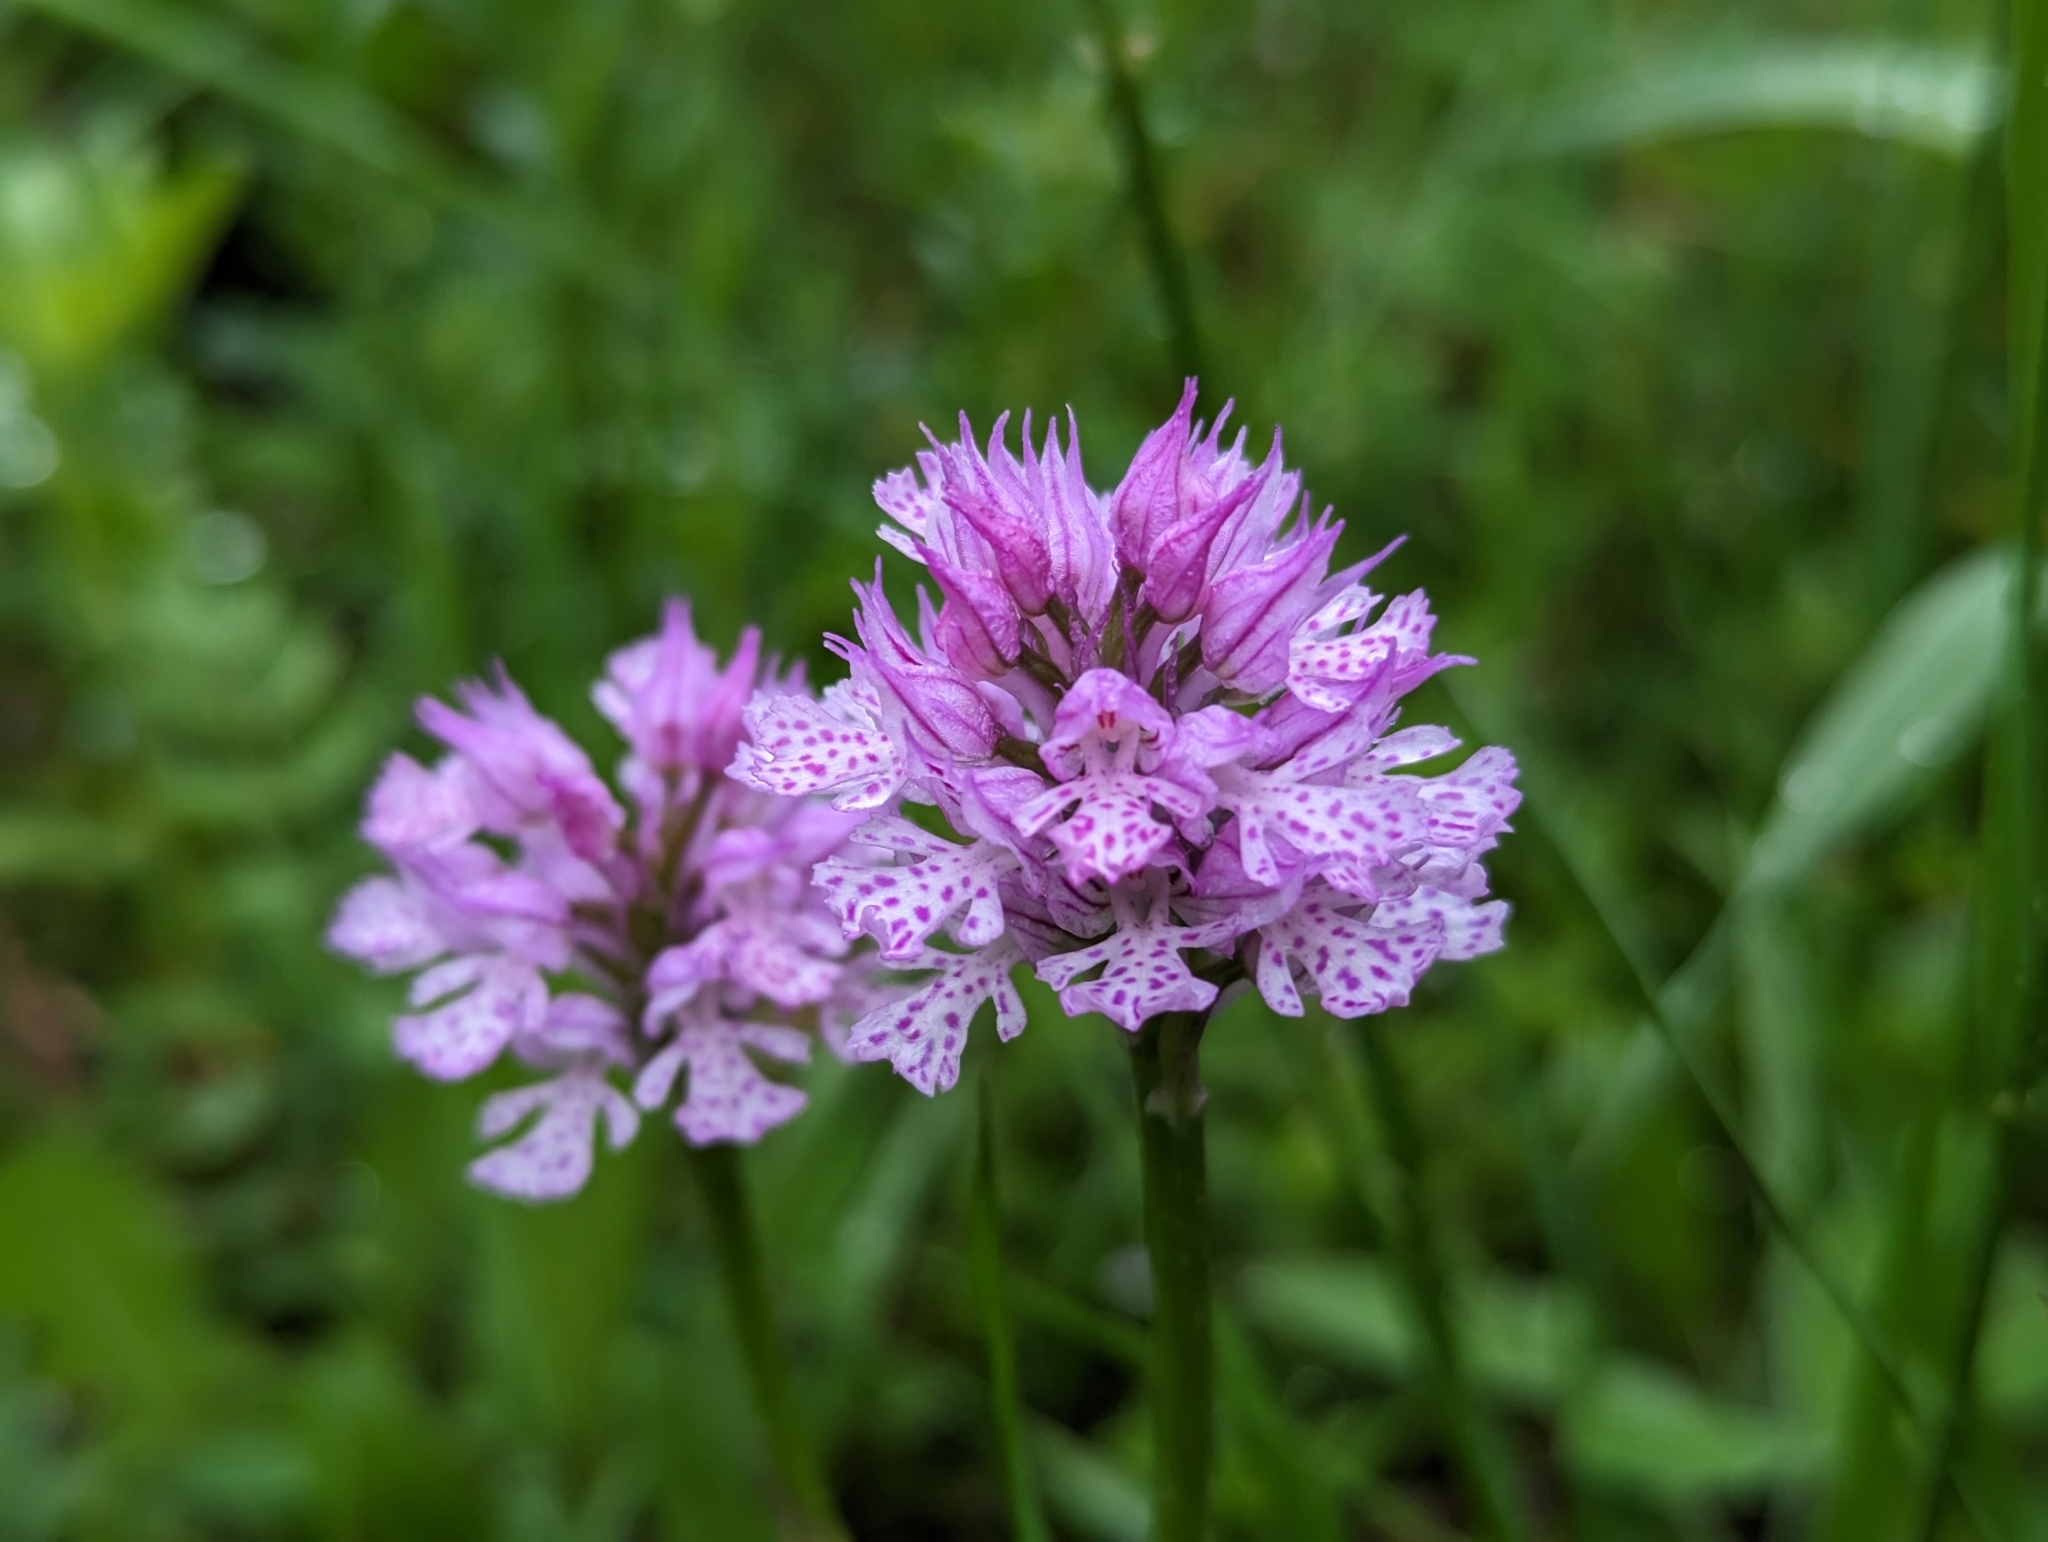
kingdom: Plantae
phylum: Tracheophyta
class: Liliopsida
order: Asparagales
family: Orchidaceae
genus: Neotinea
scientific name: Neotinea tridentata
